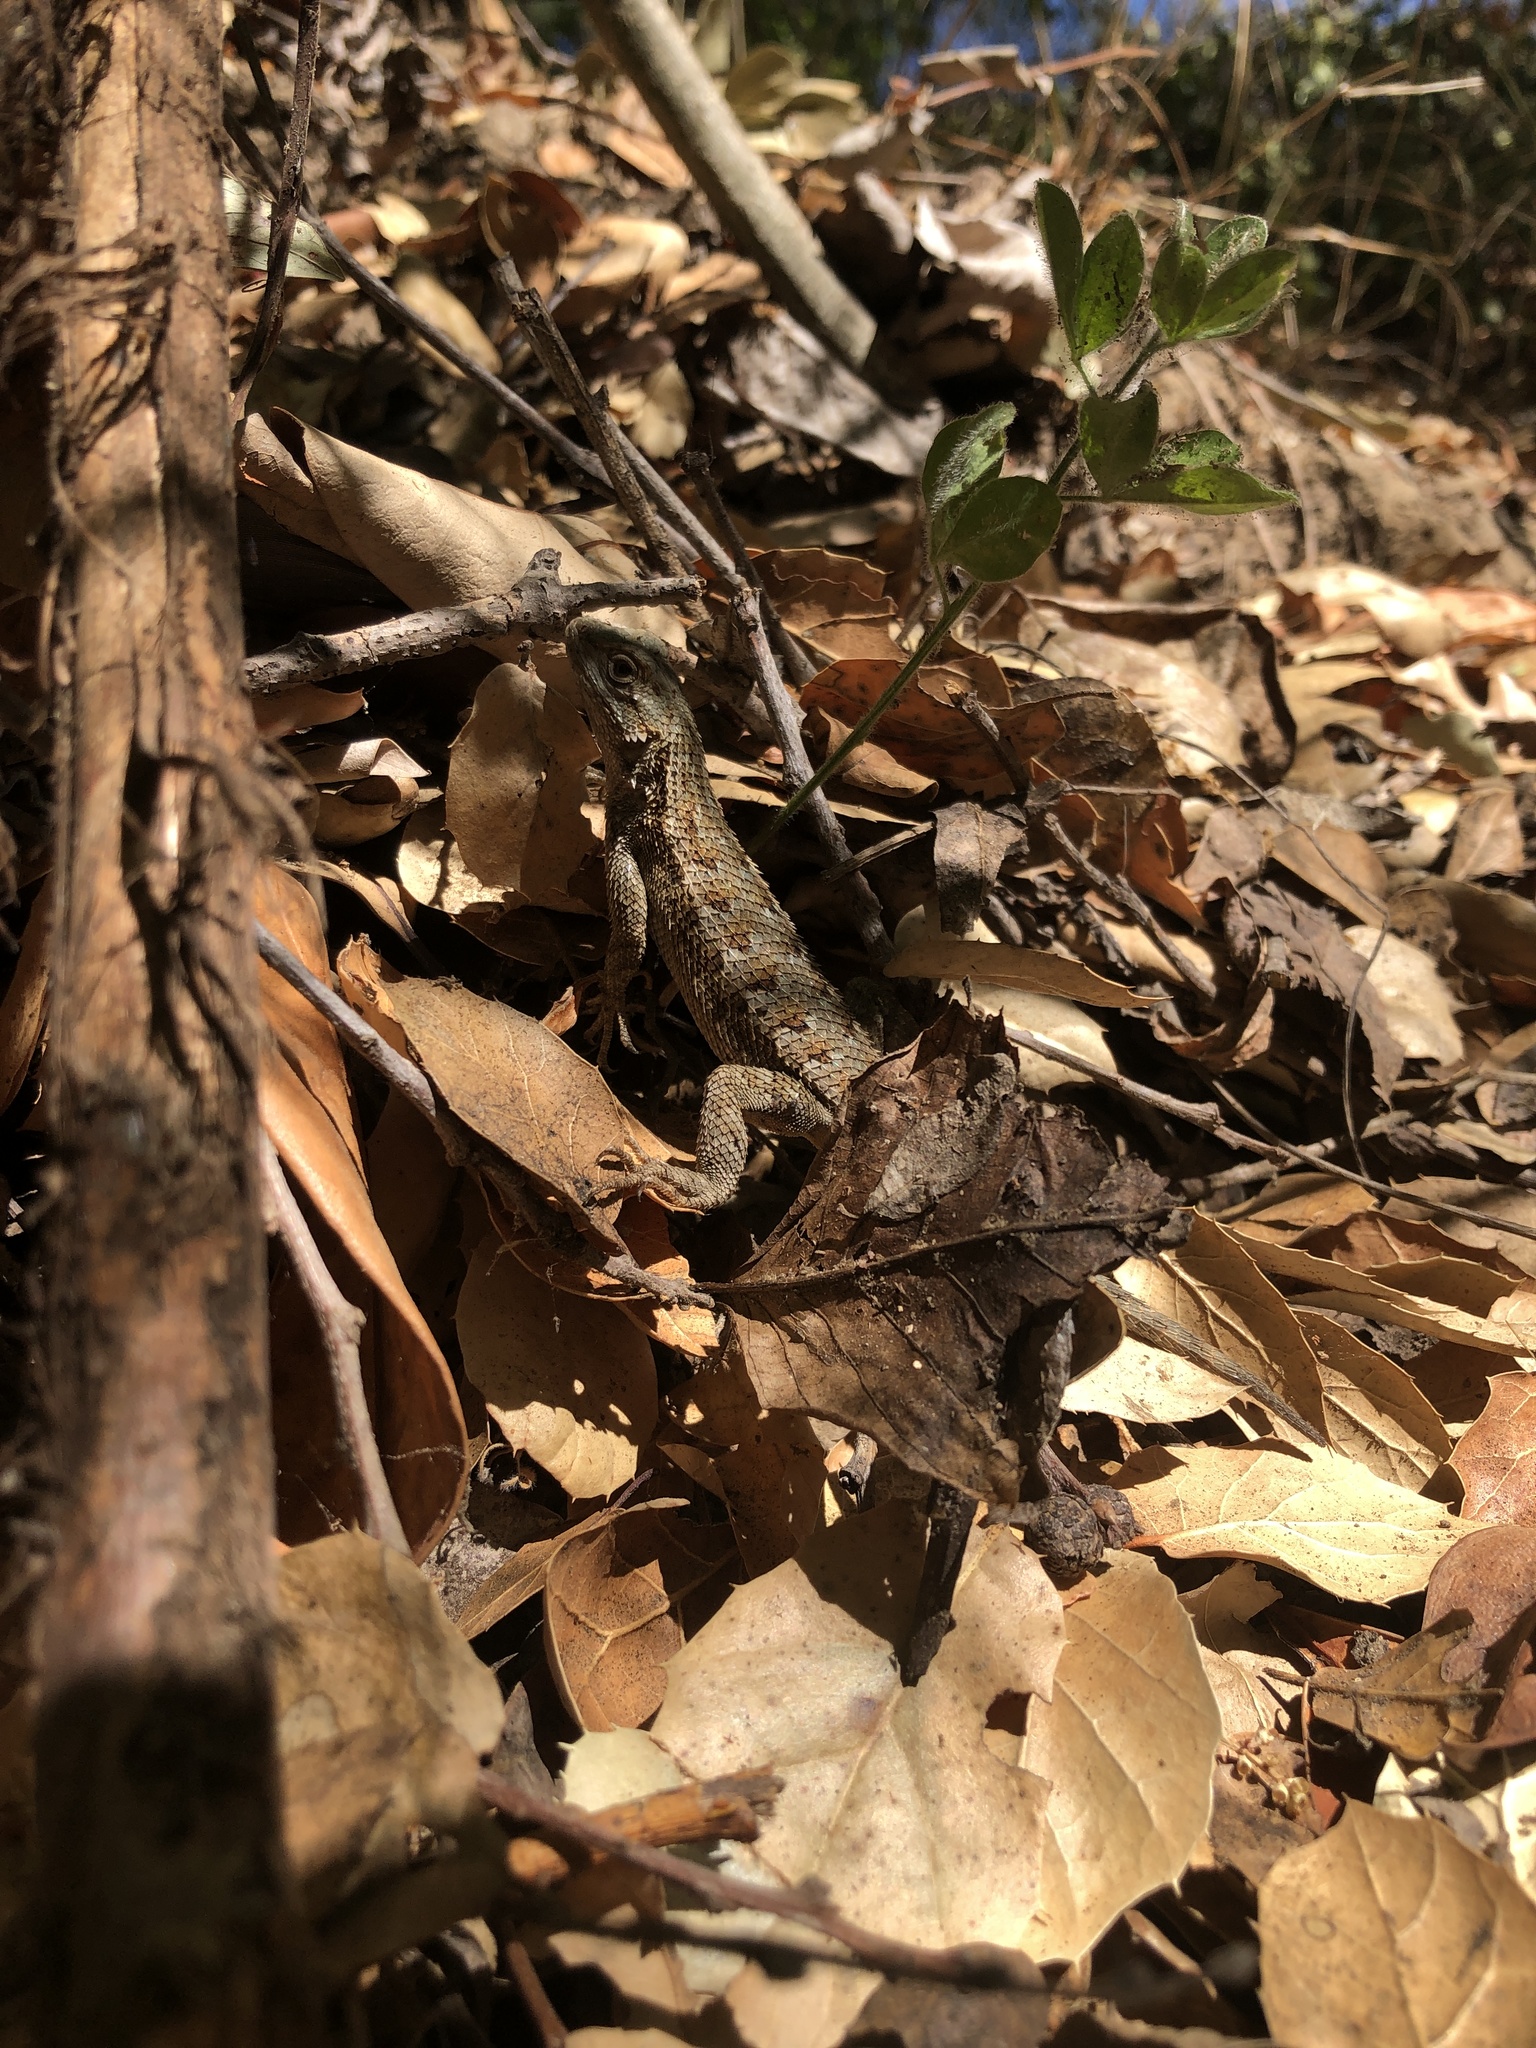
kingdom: Animalia
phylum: Chordata
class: Squamata
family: Phrynosomatidae
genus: Sceloporus
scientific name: Sceloporus occidentalis
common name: Western fence lizard
